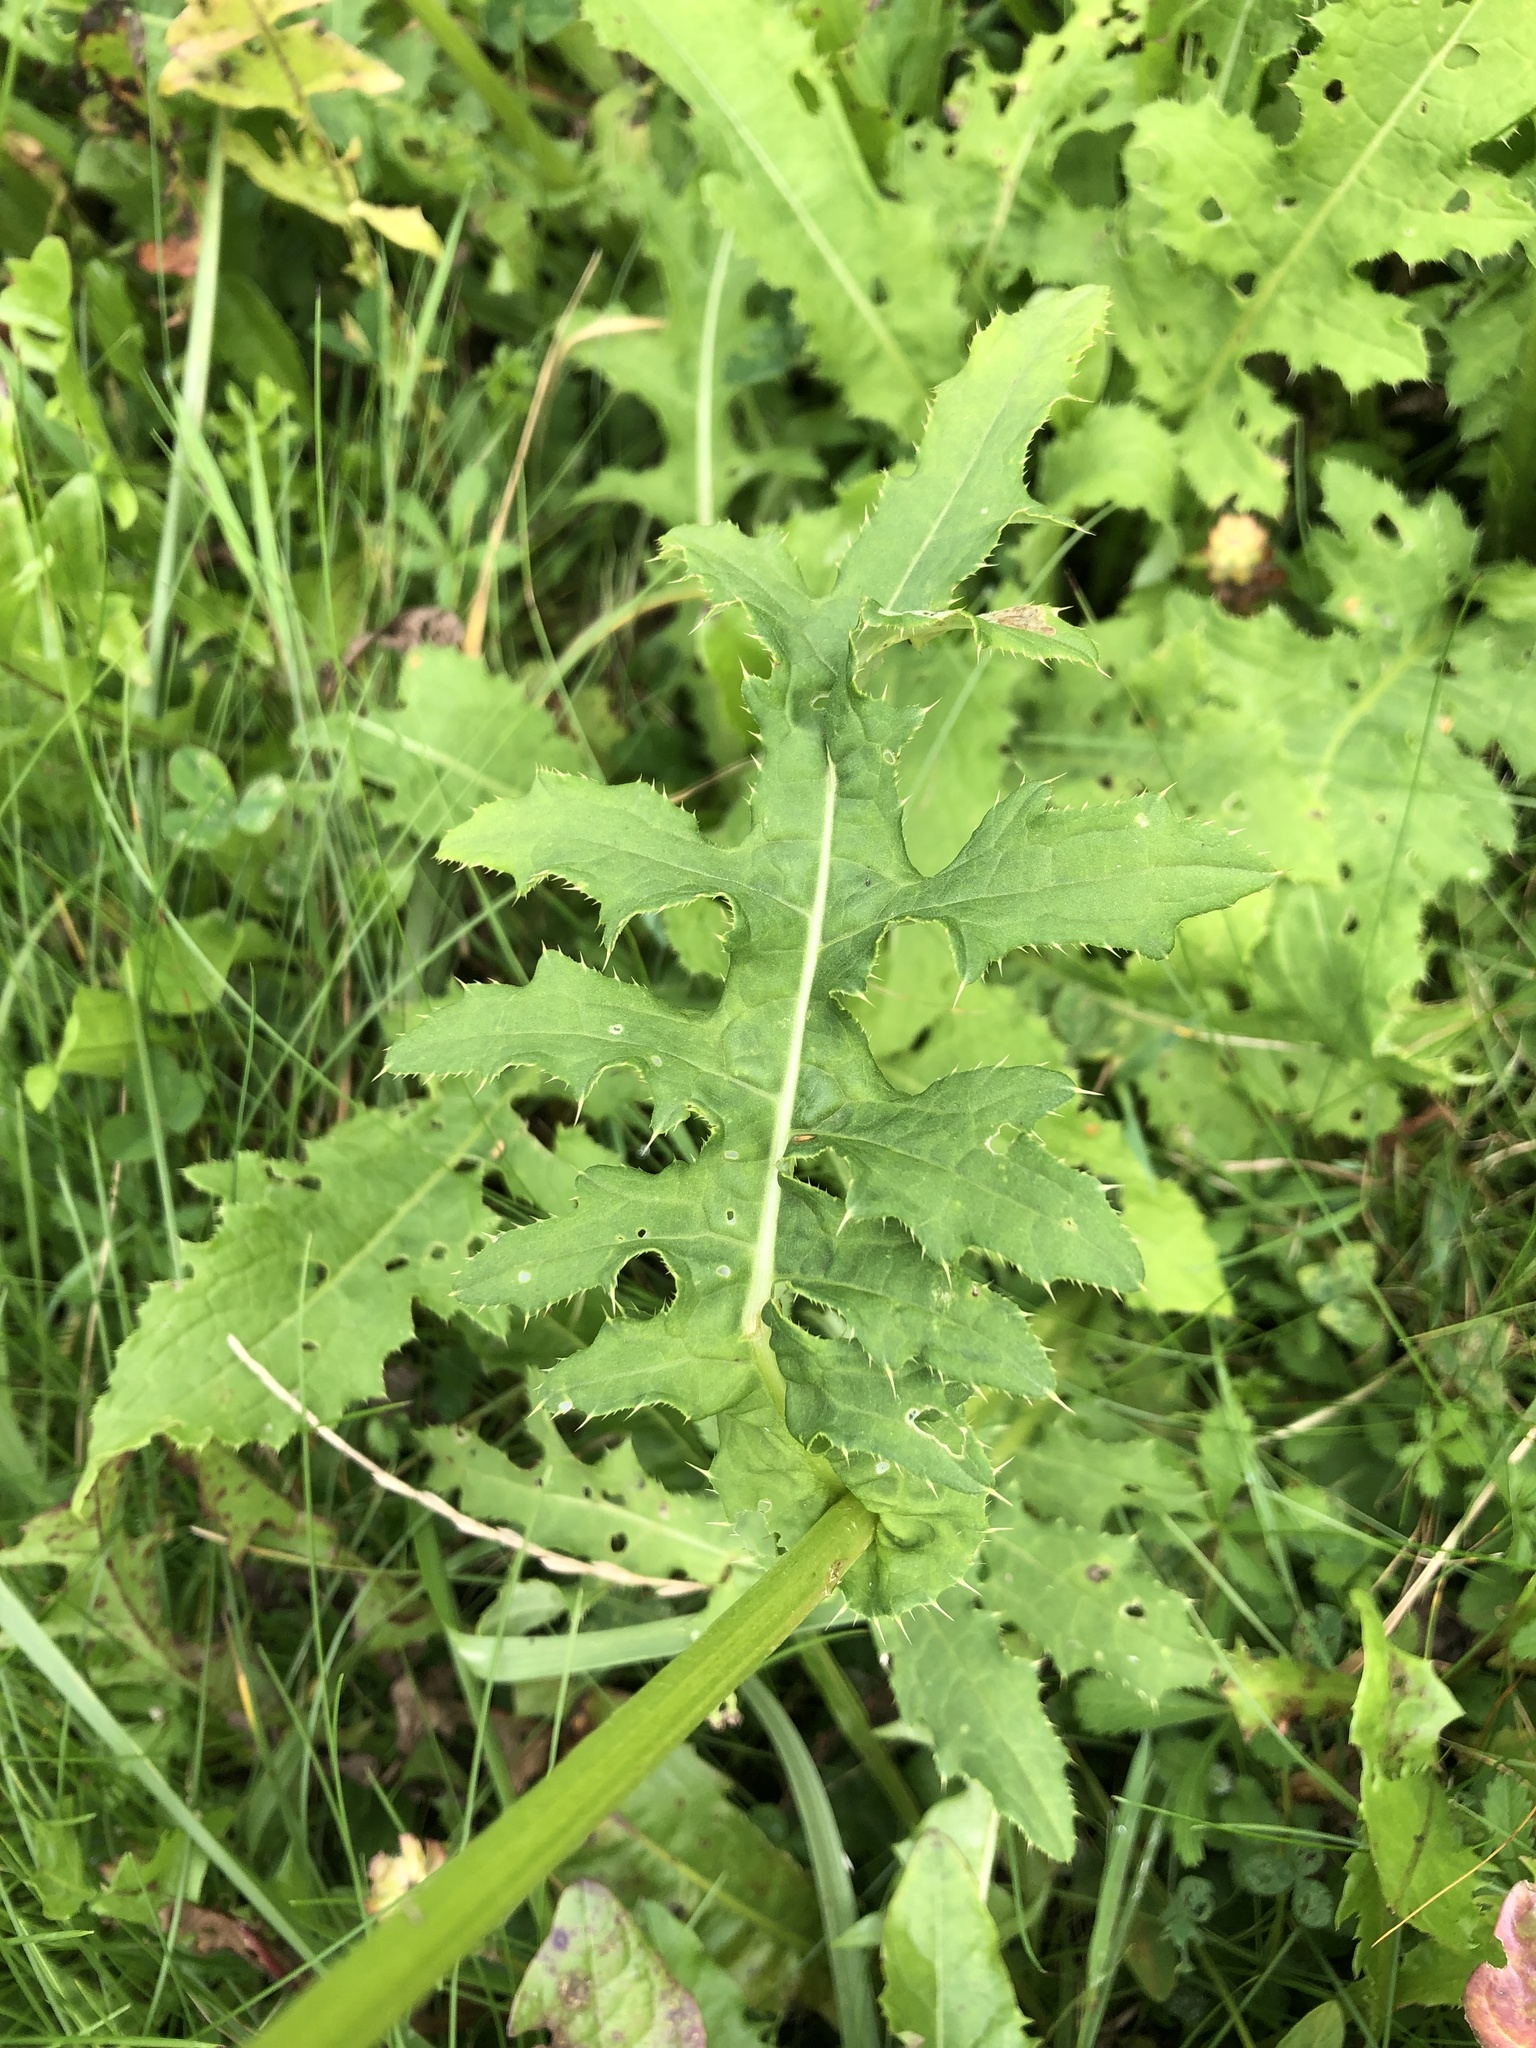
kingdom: Plantae
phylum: Tracheophyta
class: Magnoliopsida
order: Asterales
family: Asteraceae
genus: Cirsium
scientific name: Cirsium oleraceum
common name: Cabbage thistle
